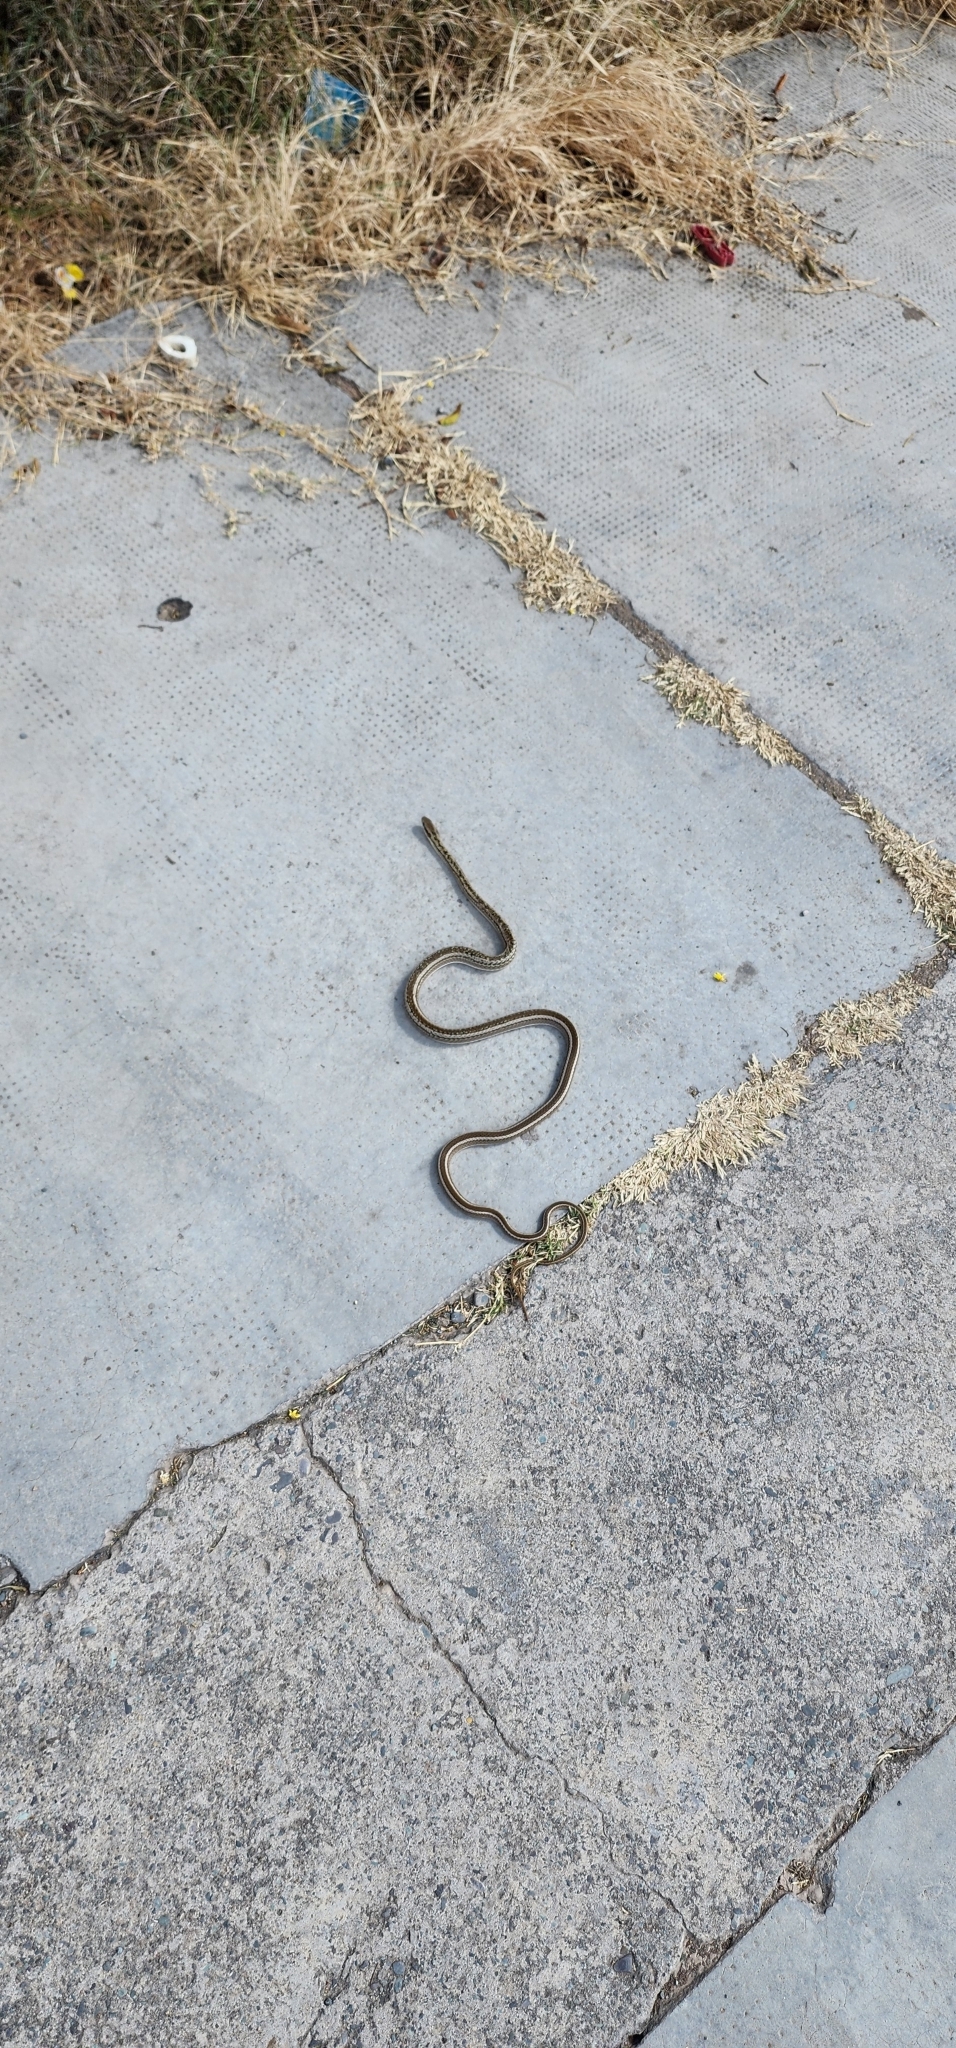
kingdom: Animalia
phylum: Chordata
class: Squamata
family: Colubridae
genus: Philodryas
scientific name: Philodryas psammophidea
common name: Günther's green racer
